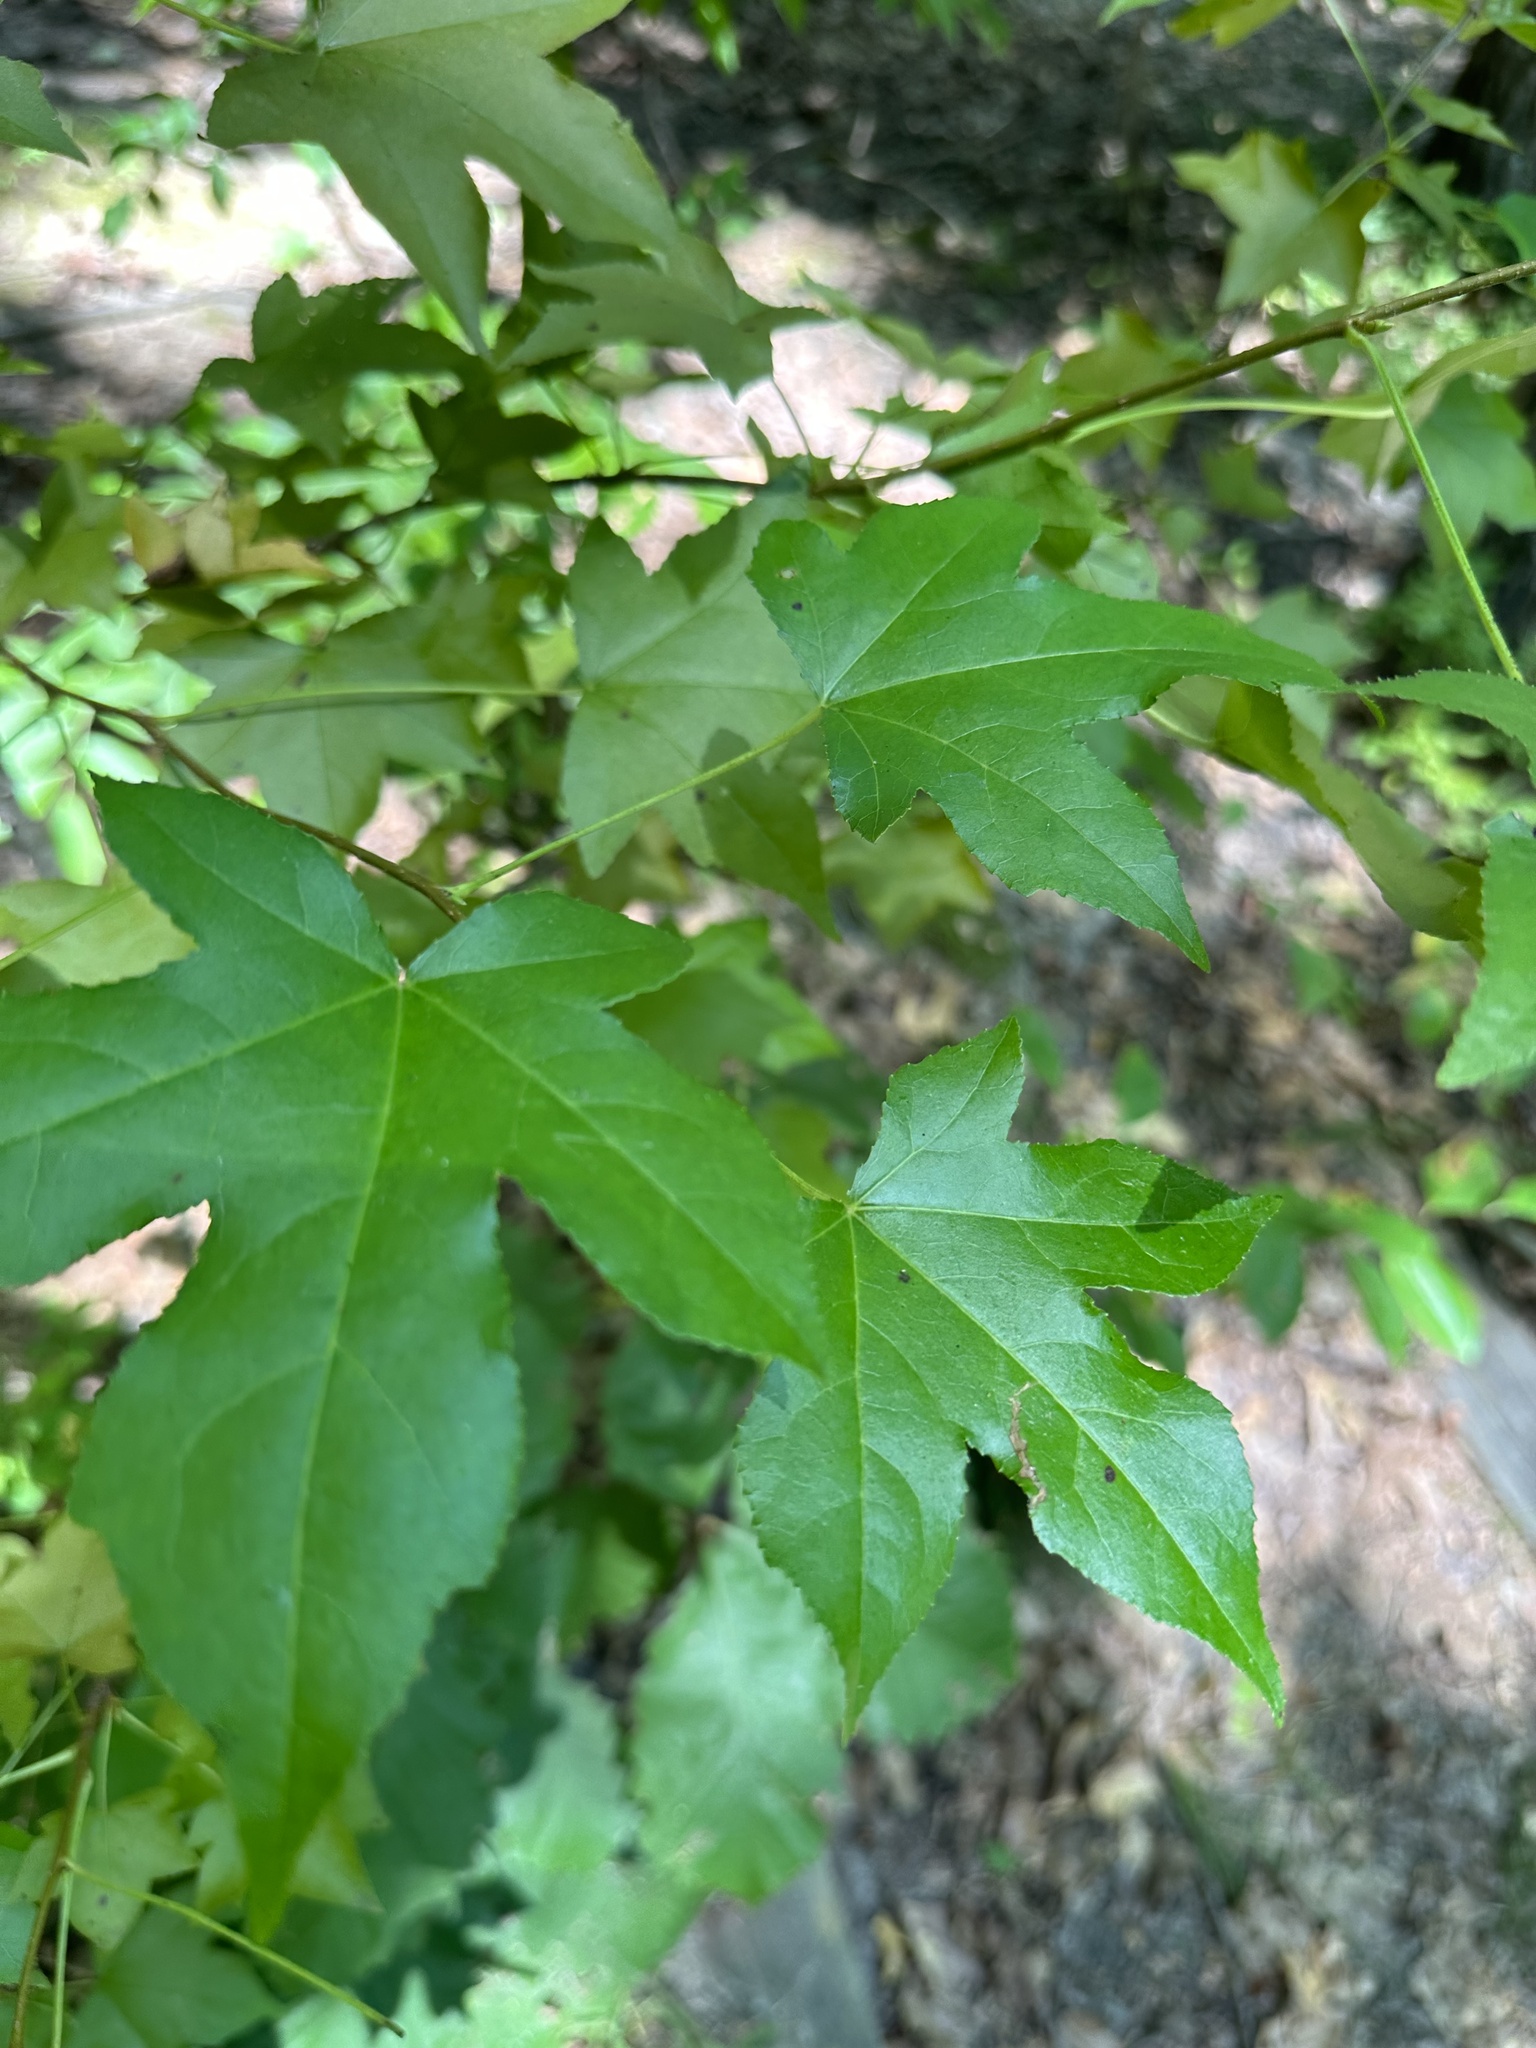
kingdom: Plantae
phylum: Tracheophyta
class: Magnoliopsida
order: Saxifragales
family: Altingiaceae
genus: Liquidambar
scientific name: Liquidambar styraciflua
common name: Sweet gum
